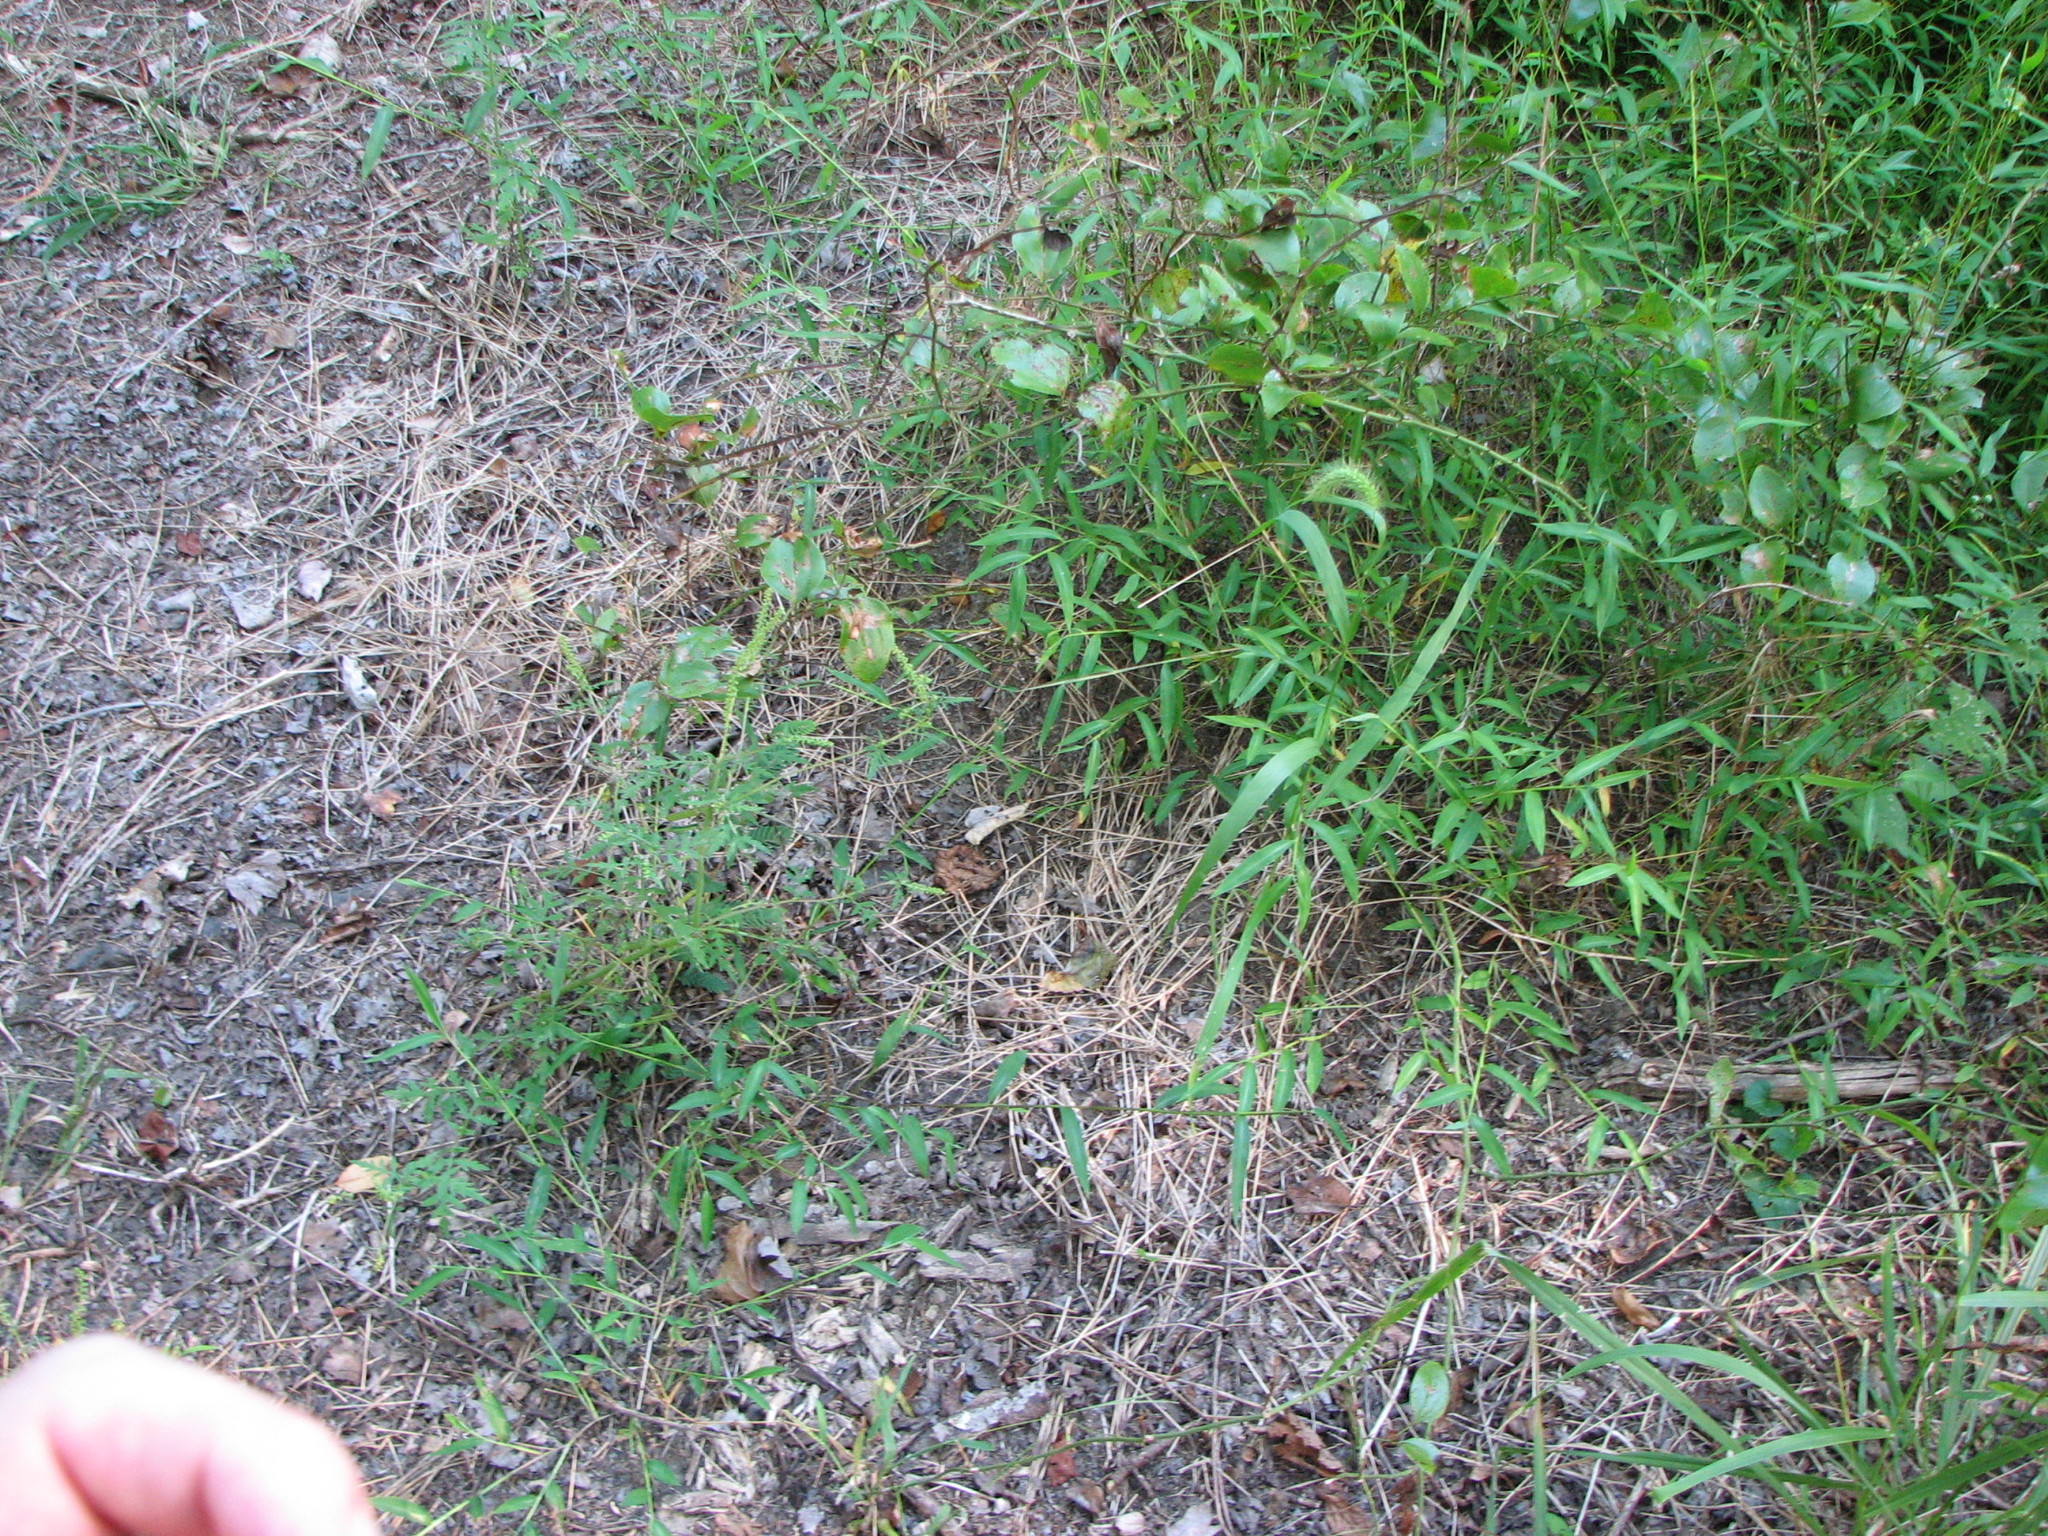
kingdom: Plantae
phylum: Tracheophyta
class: Magnoliopsida
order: Asterales
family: Asteraceae
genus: Ambrosia
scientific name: Ambrosia artemisiifolia
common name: Annual ragweed
